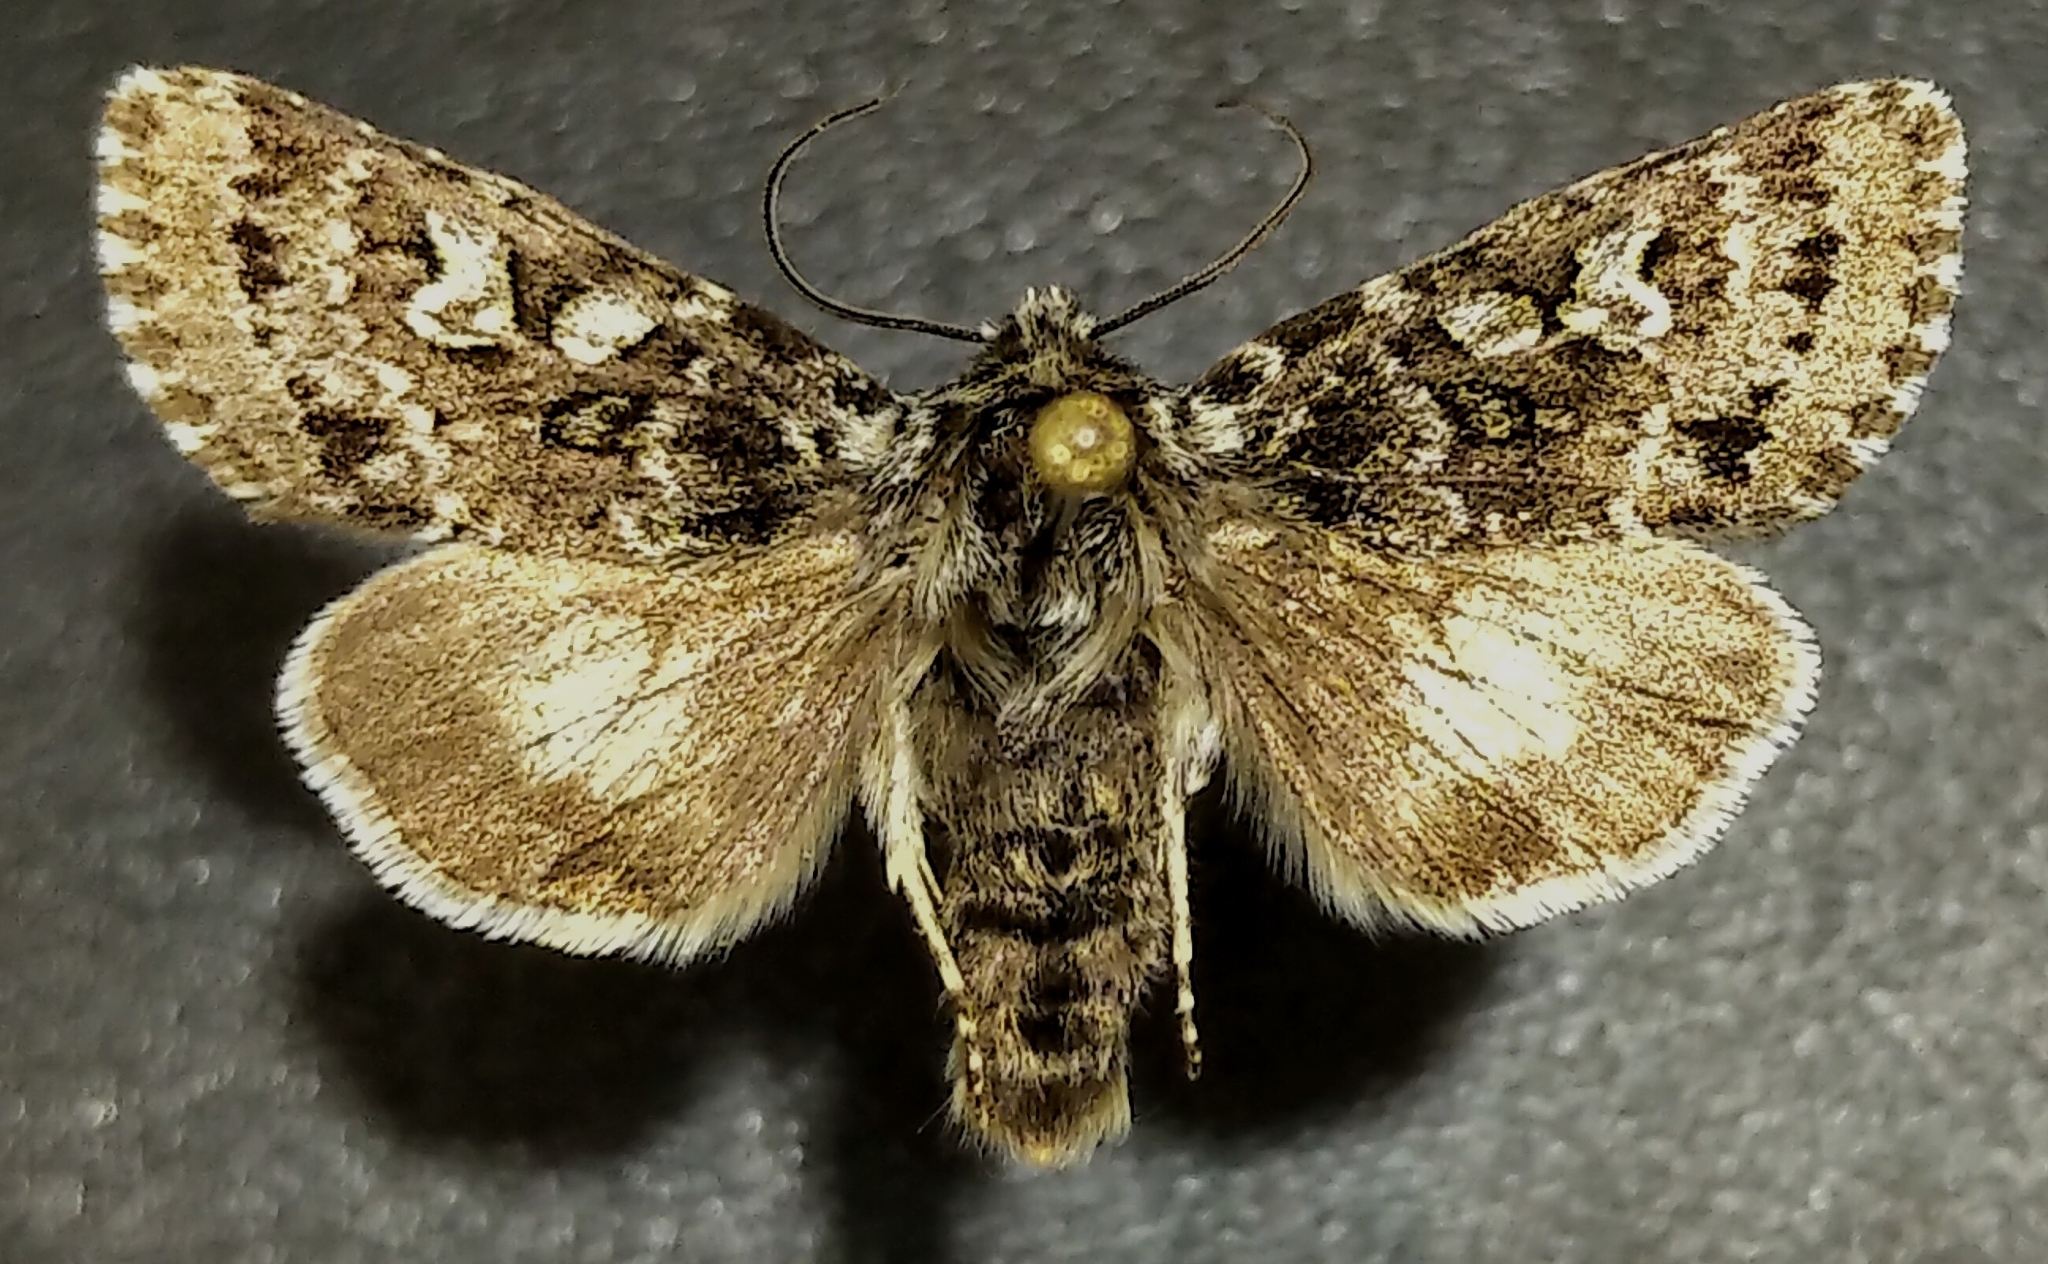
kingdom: Animalia
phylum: Arthropoda
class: Insecta
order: Lepidoptera
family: Noctuidae
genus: Polia
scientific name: Polia richardsoni
